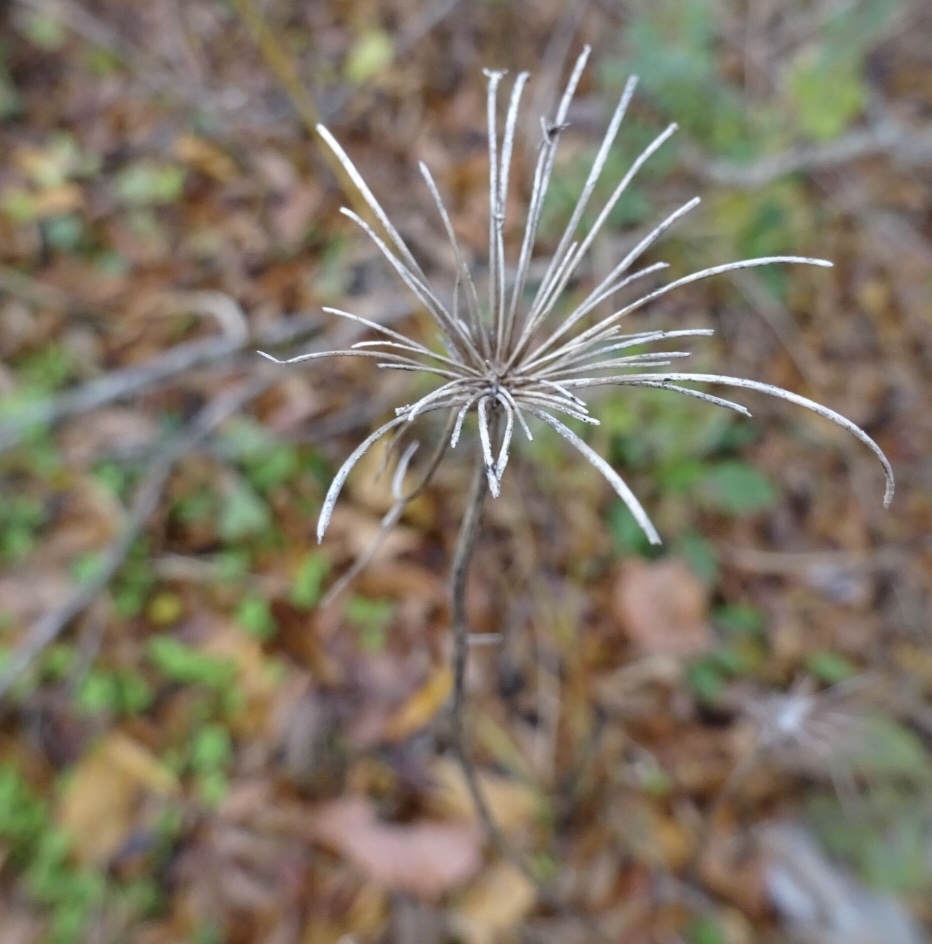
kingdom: Plantae
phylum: Tracheophyta
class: Magnoliopsida
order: Apiales
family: Apiaceae
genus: Daucus
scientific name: Daucus carota
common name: Wild carrot
